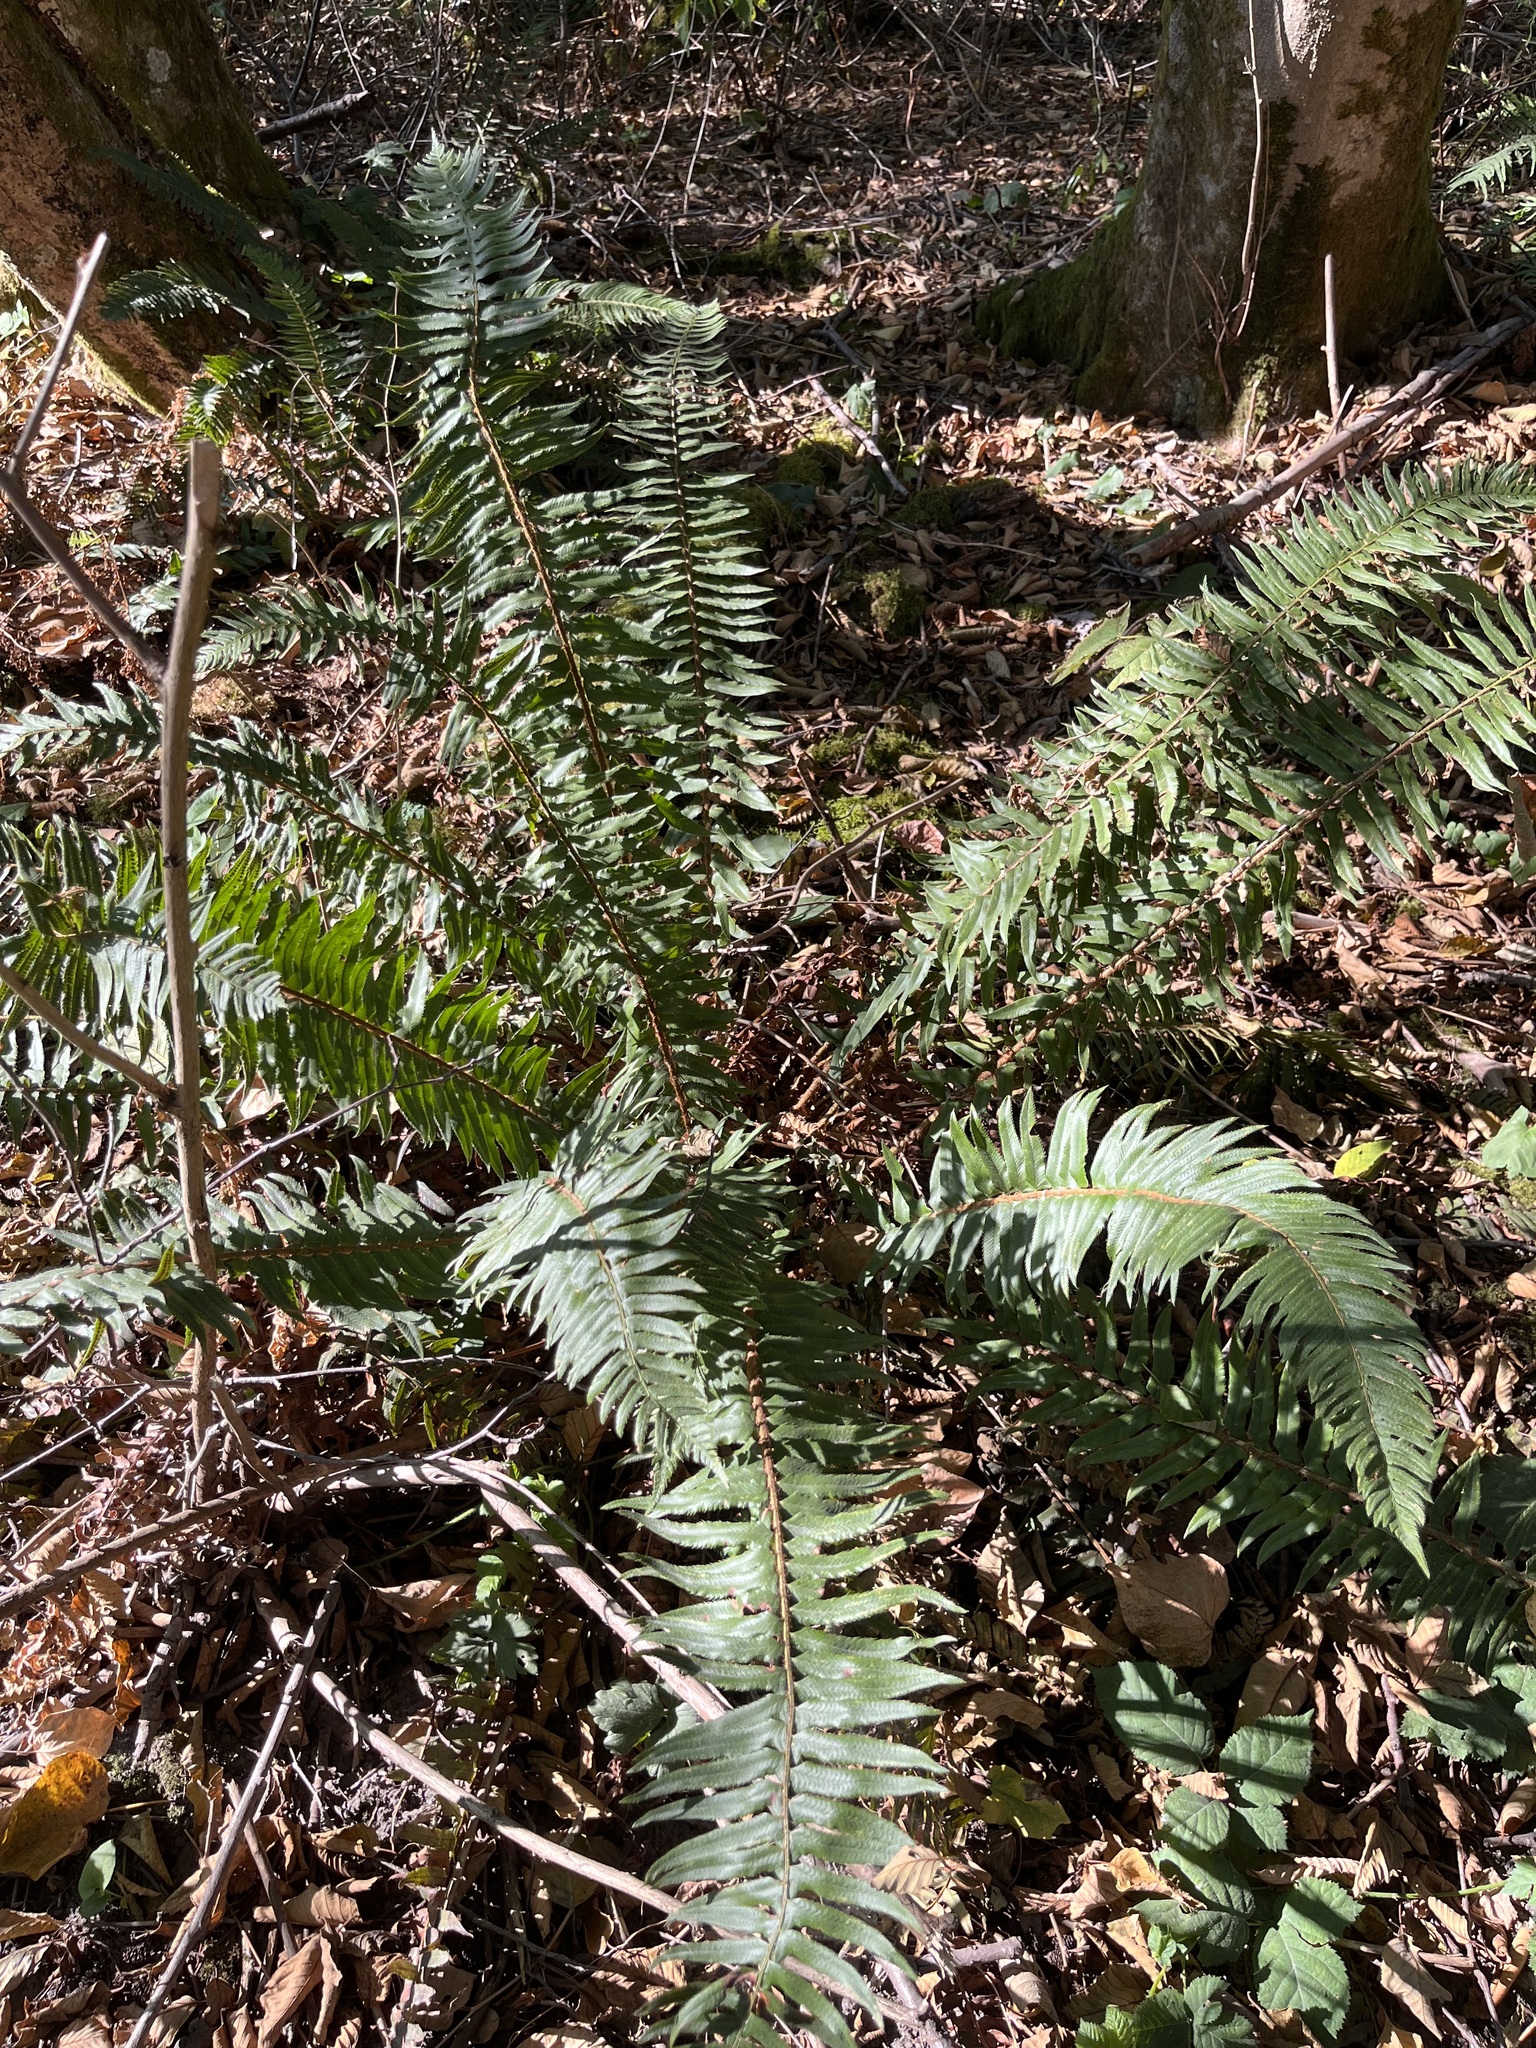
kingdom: Plantae
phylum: Tracheophyta
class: Polypodiopsida
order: Polypodiales
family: Dryopteridaceae
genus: Polystichum
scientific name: Polystichum munitum
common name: Western sword-fern
